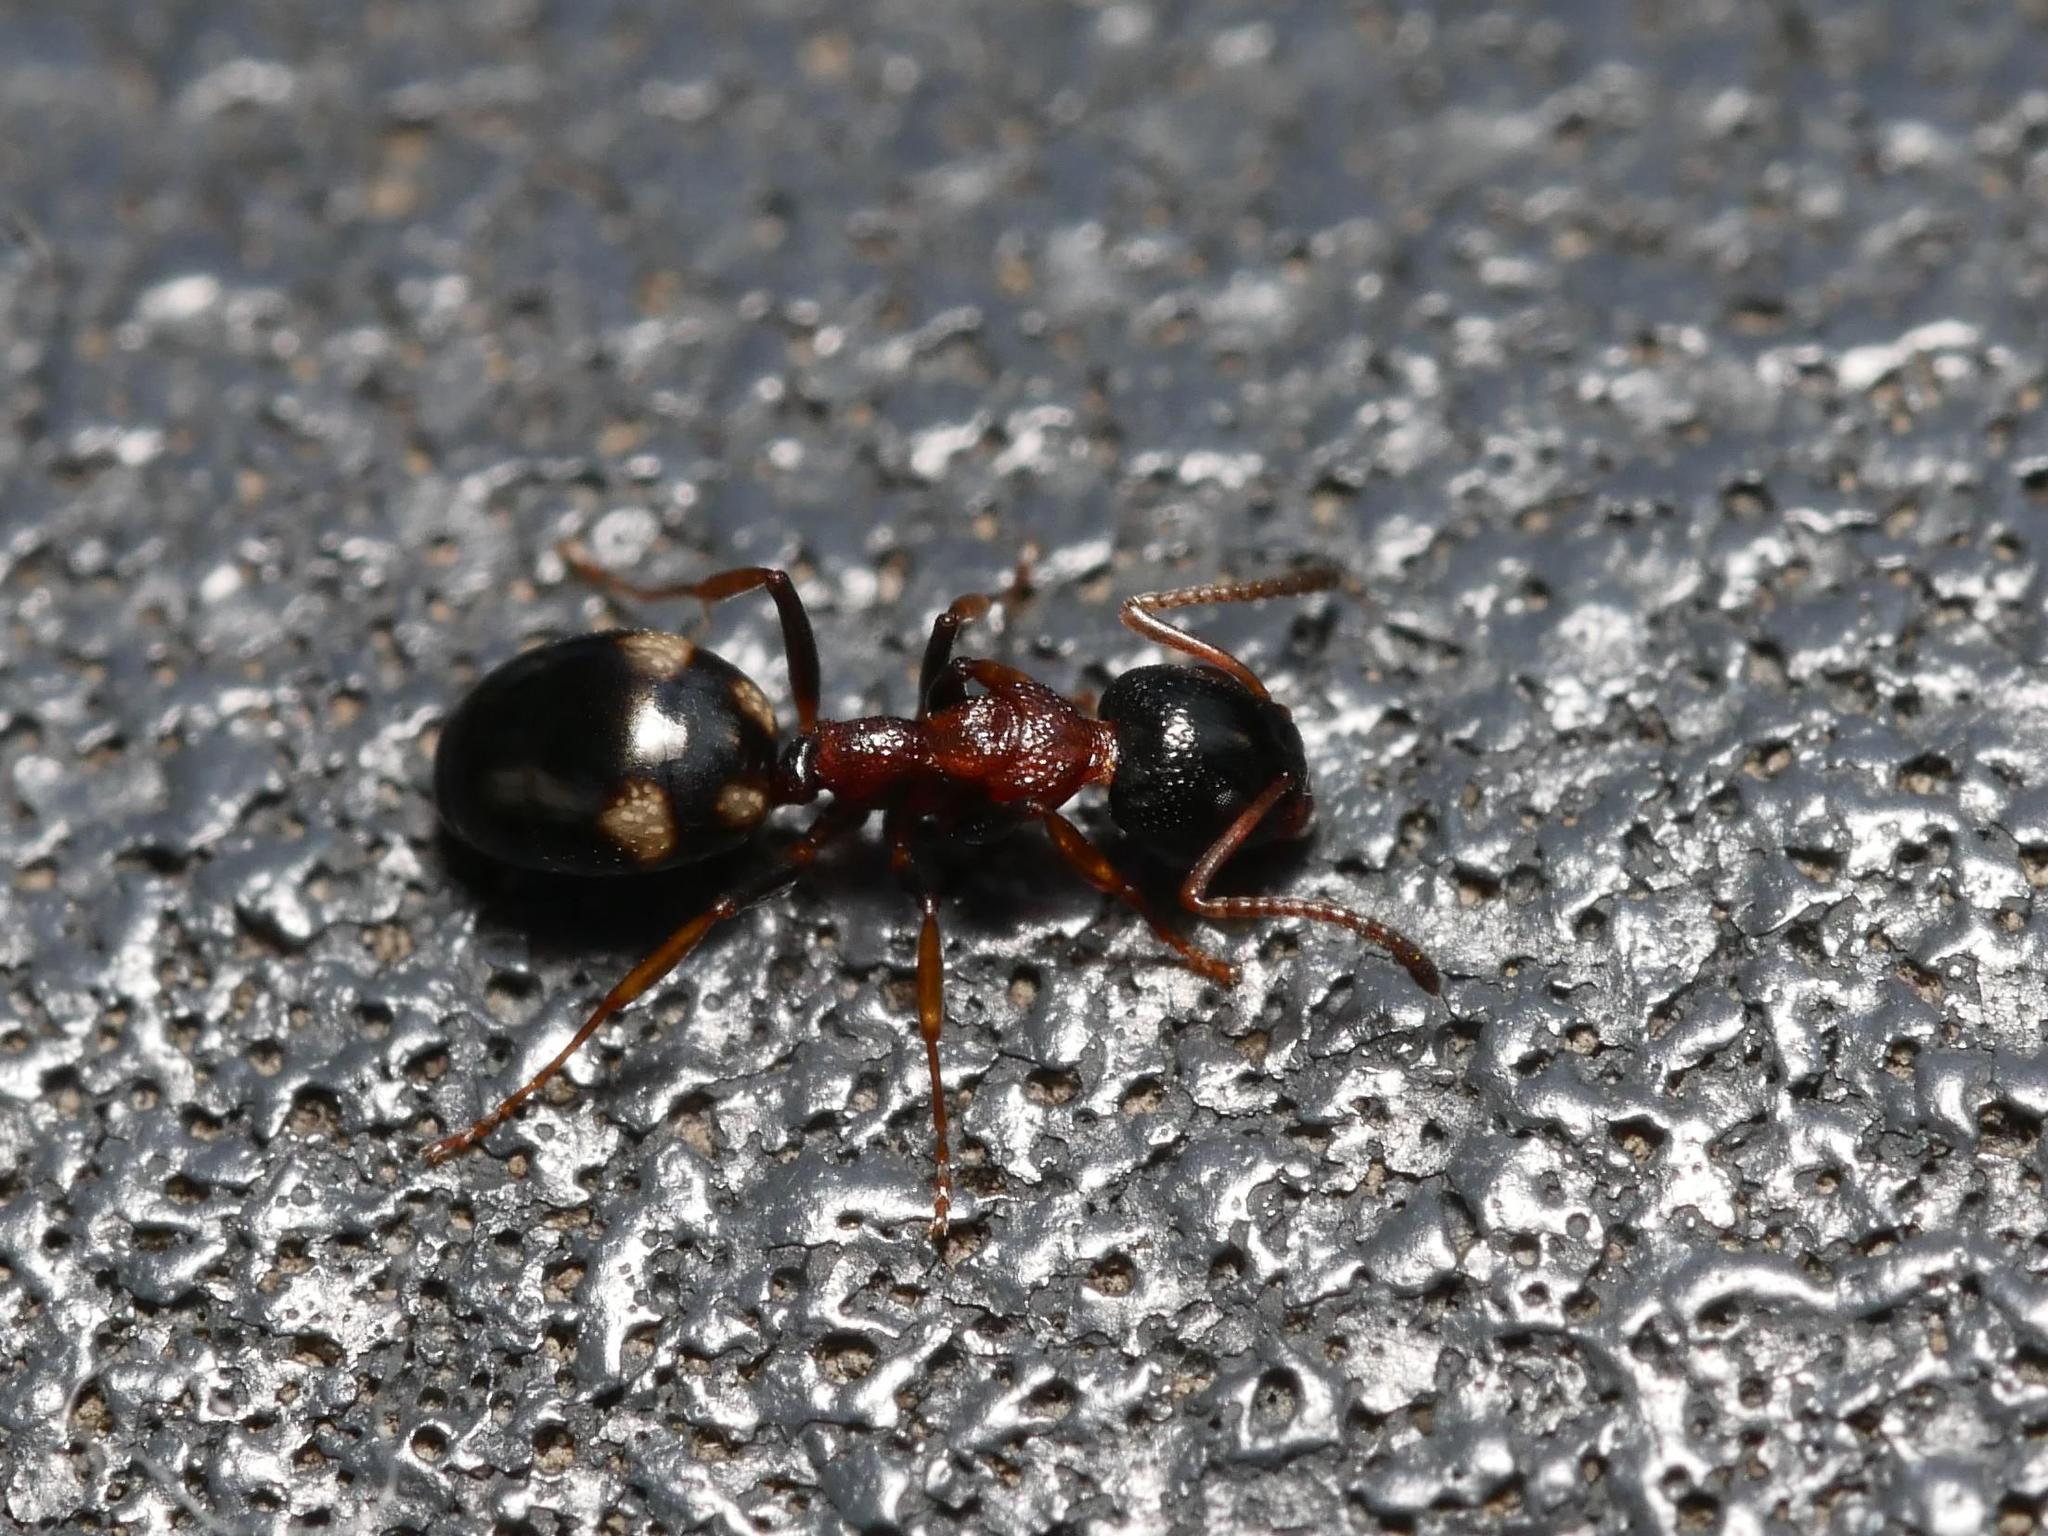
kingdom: Animalia
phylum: Arthropoda
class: Insecta
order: Hymenoptera
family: Formicidae
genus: Dolichoderus
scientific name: Dolichoderus quadripunctatus
